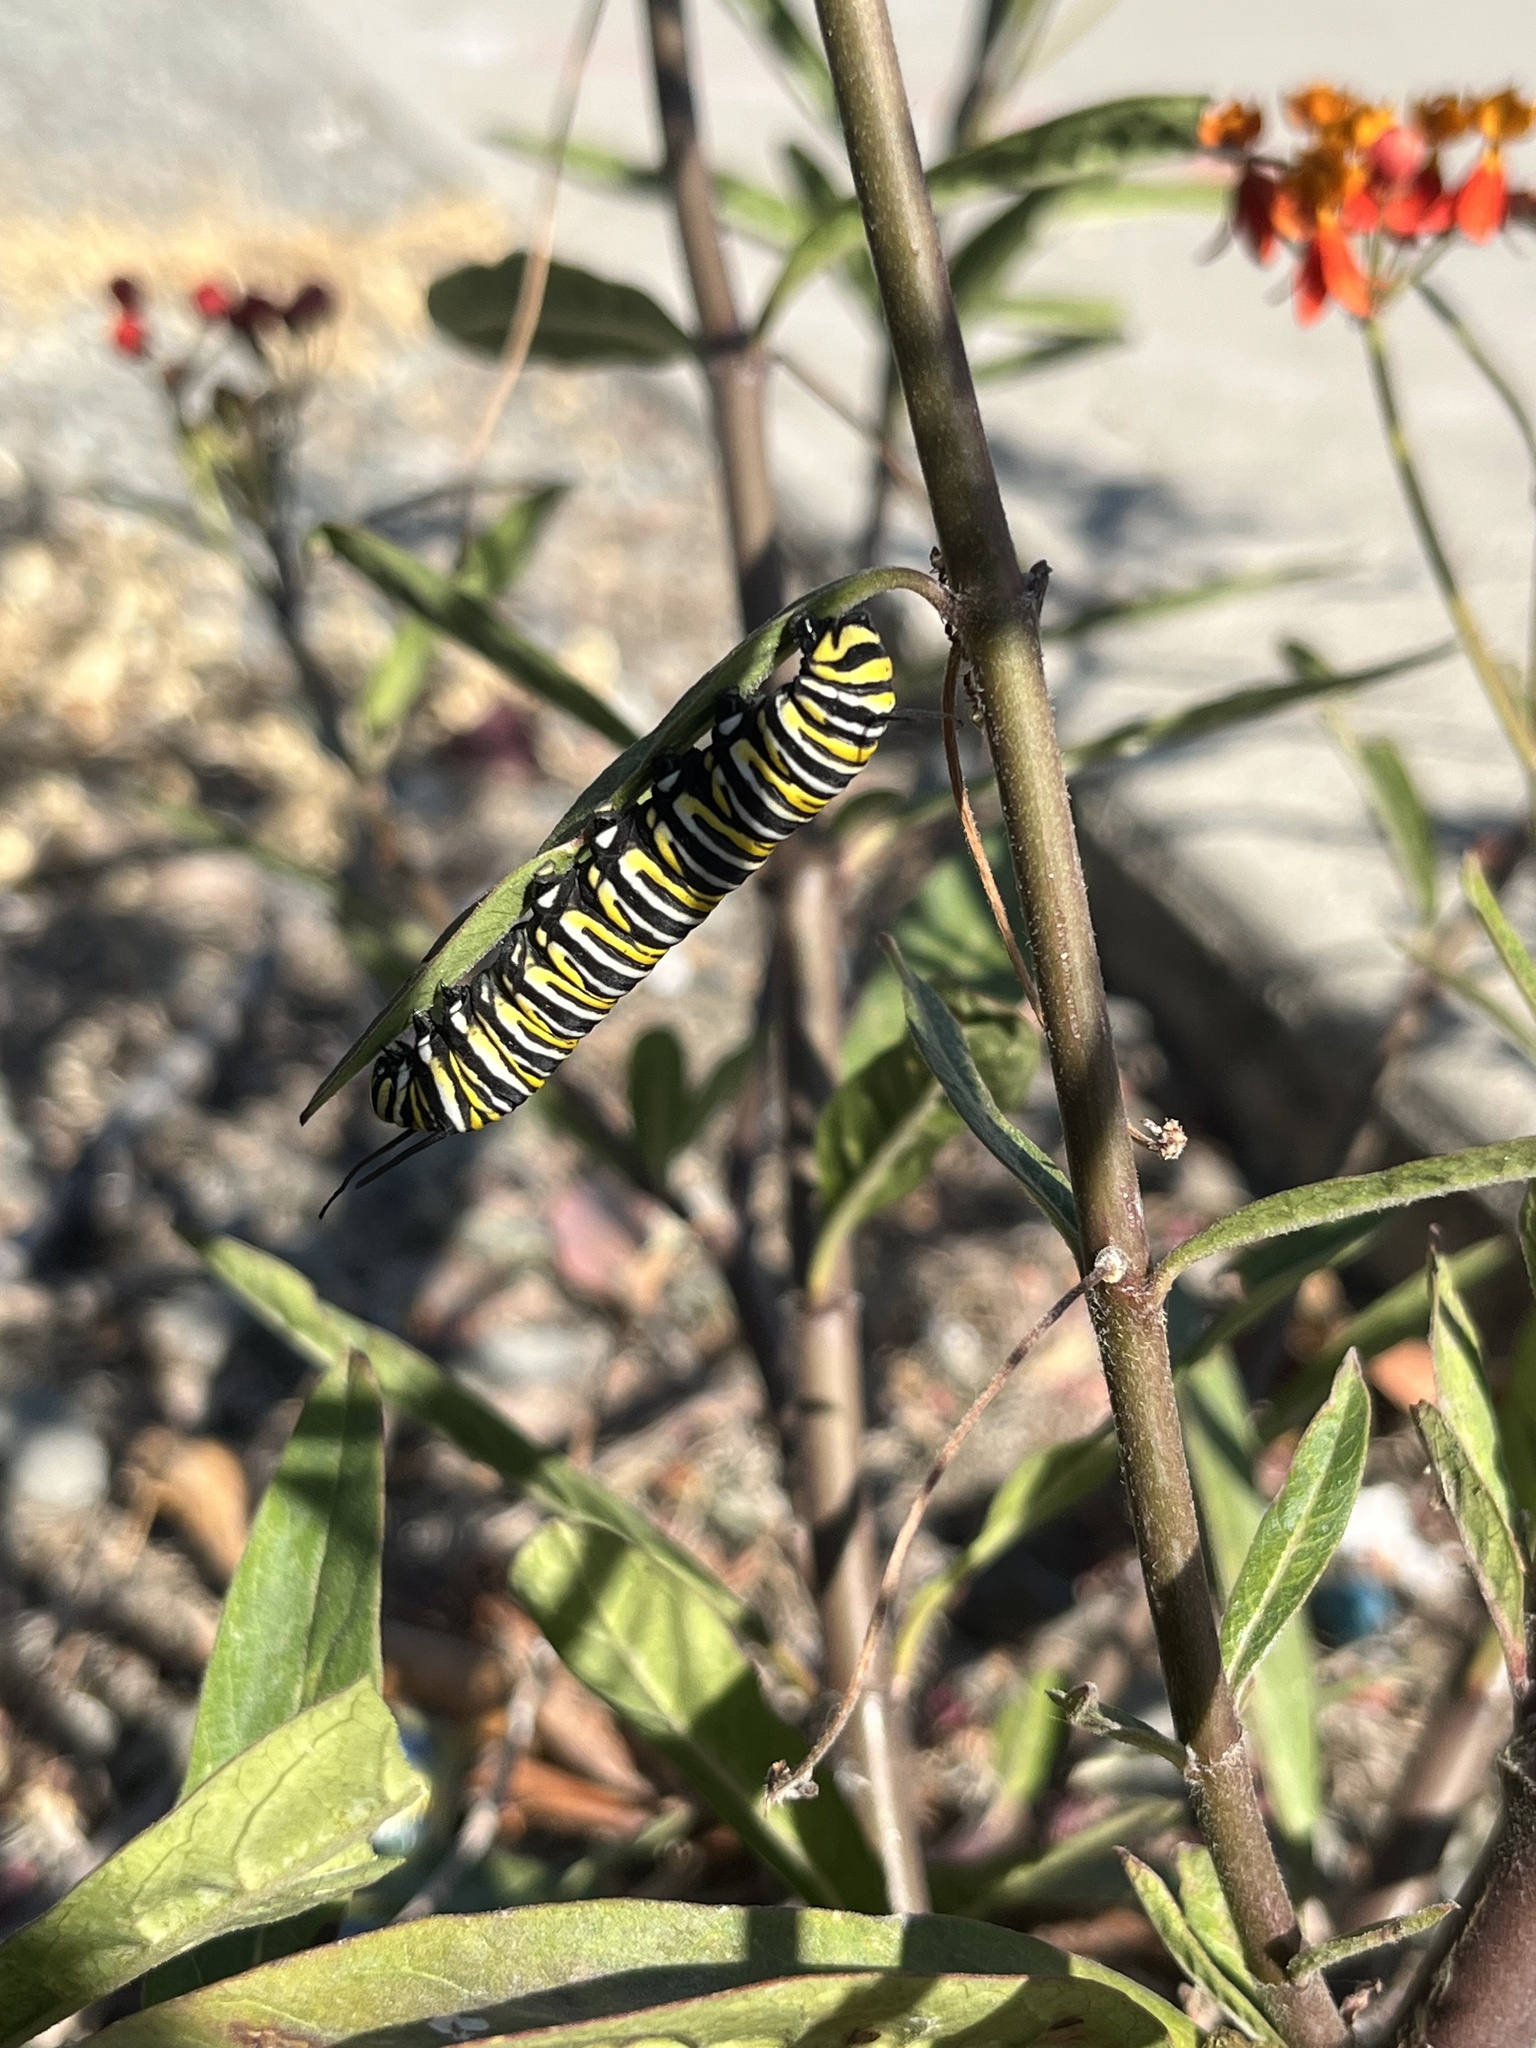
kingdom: Animalia
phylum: Arthropoda
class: Insecta
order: Lepidoptera
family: Nymphalidae
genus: Danaus
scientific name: Danaus plexippus
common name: Monarch
